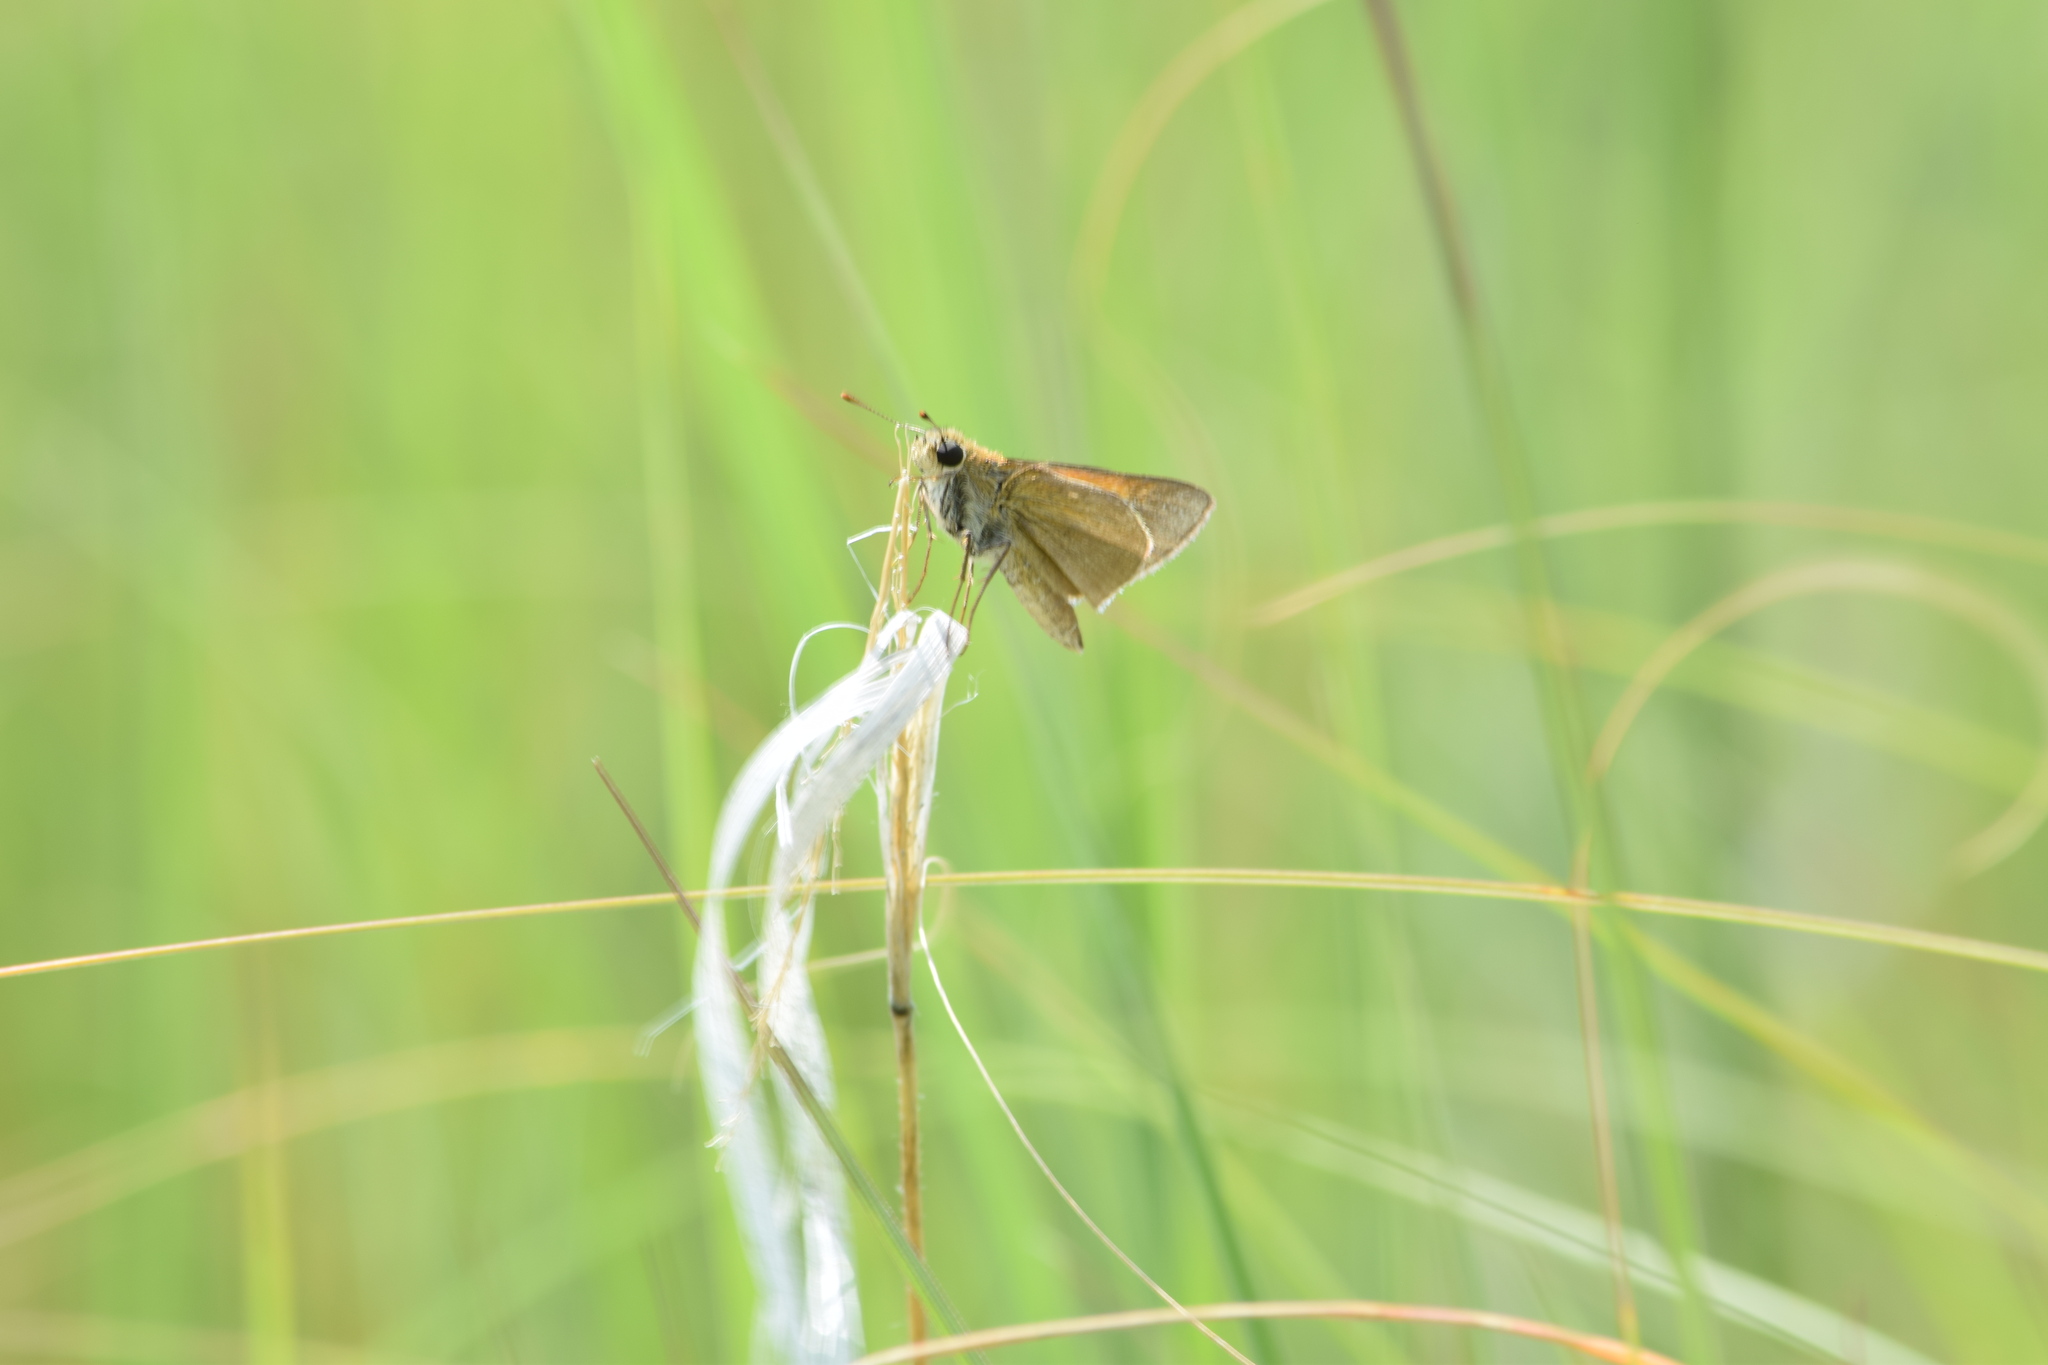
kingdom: Animalia
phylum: Arthropoda
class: Insecta
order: Lepidoptera
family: Hesperiidae
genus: Polites
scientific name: Polites themistocles
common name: Tawny-edged skipper
